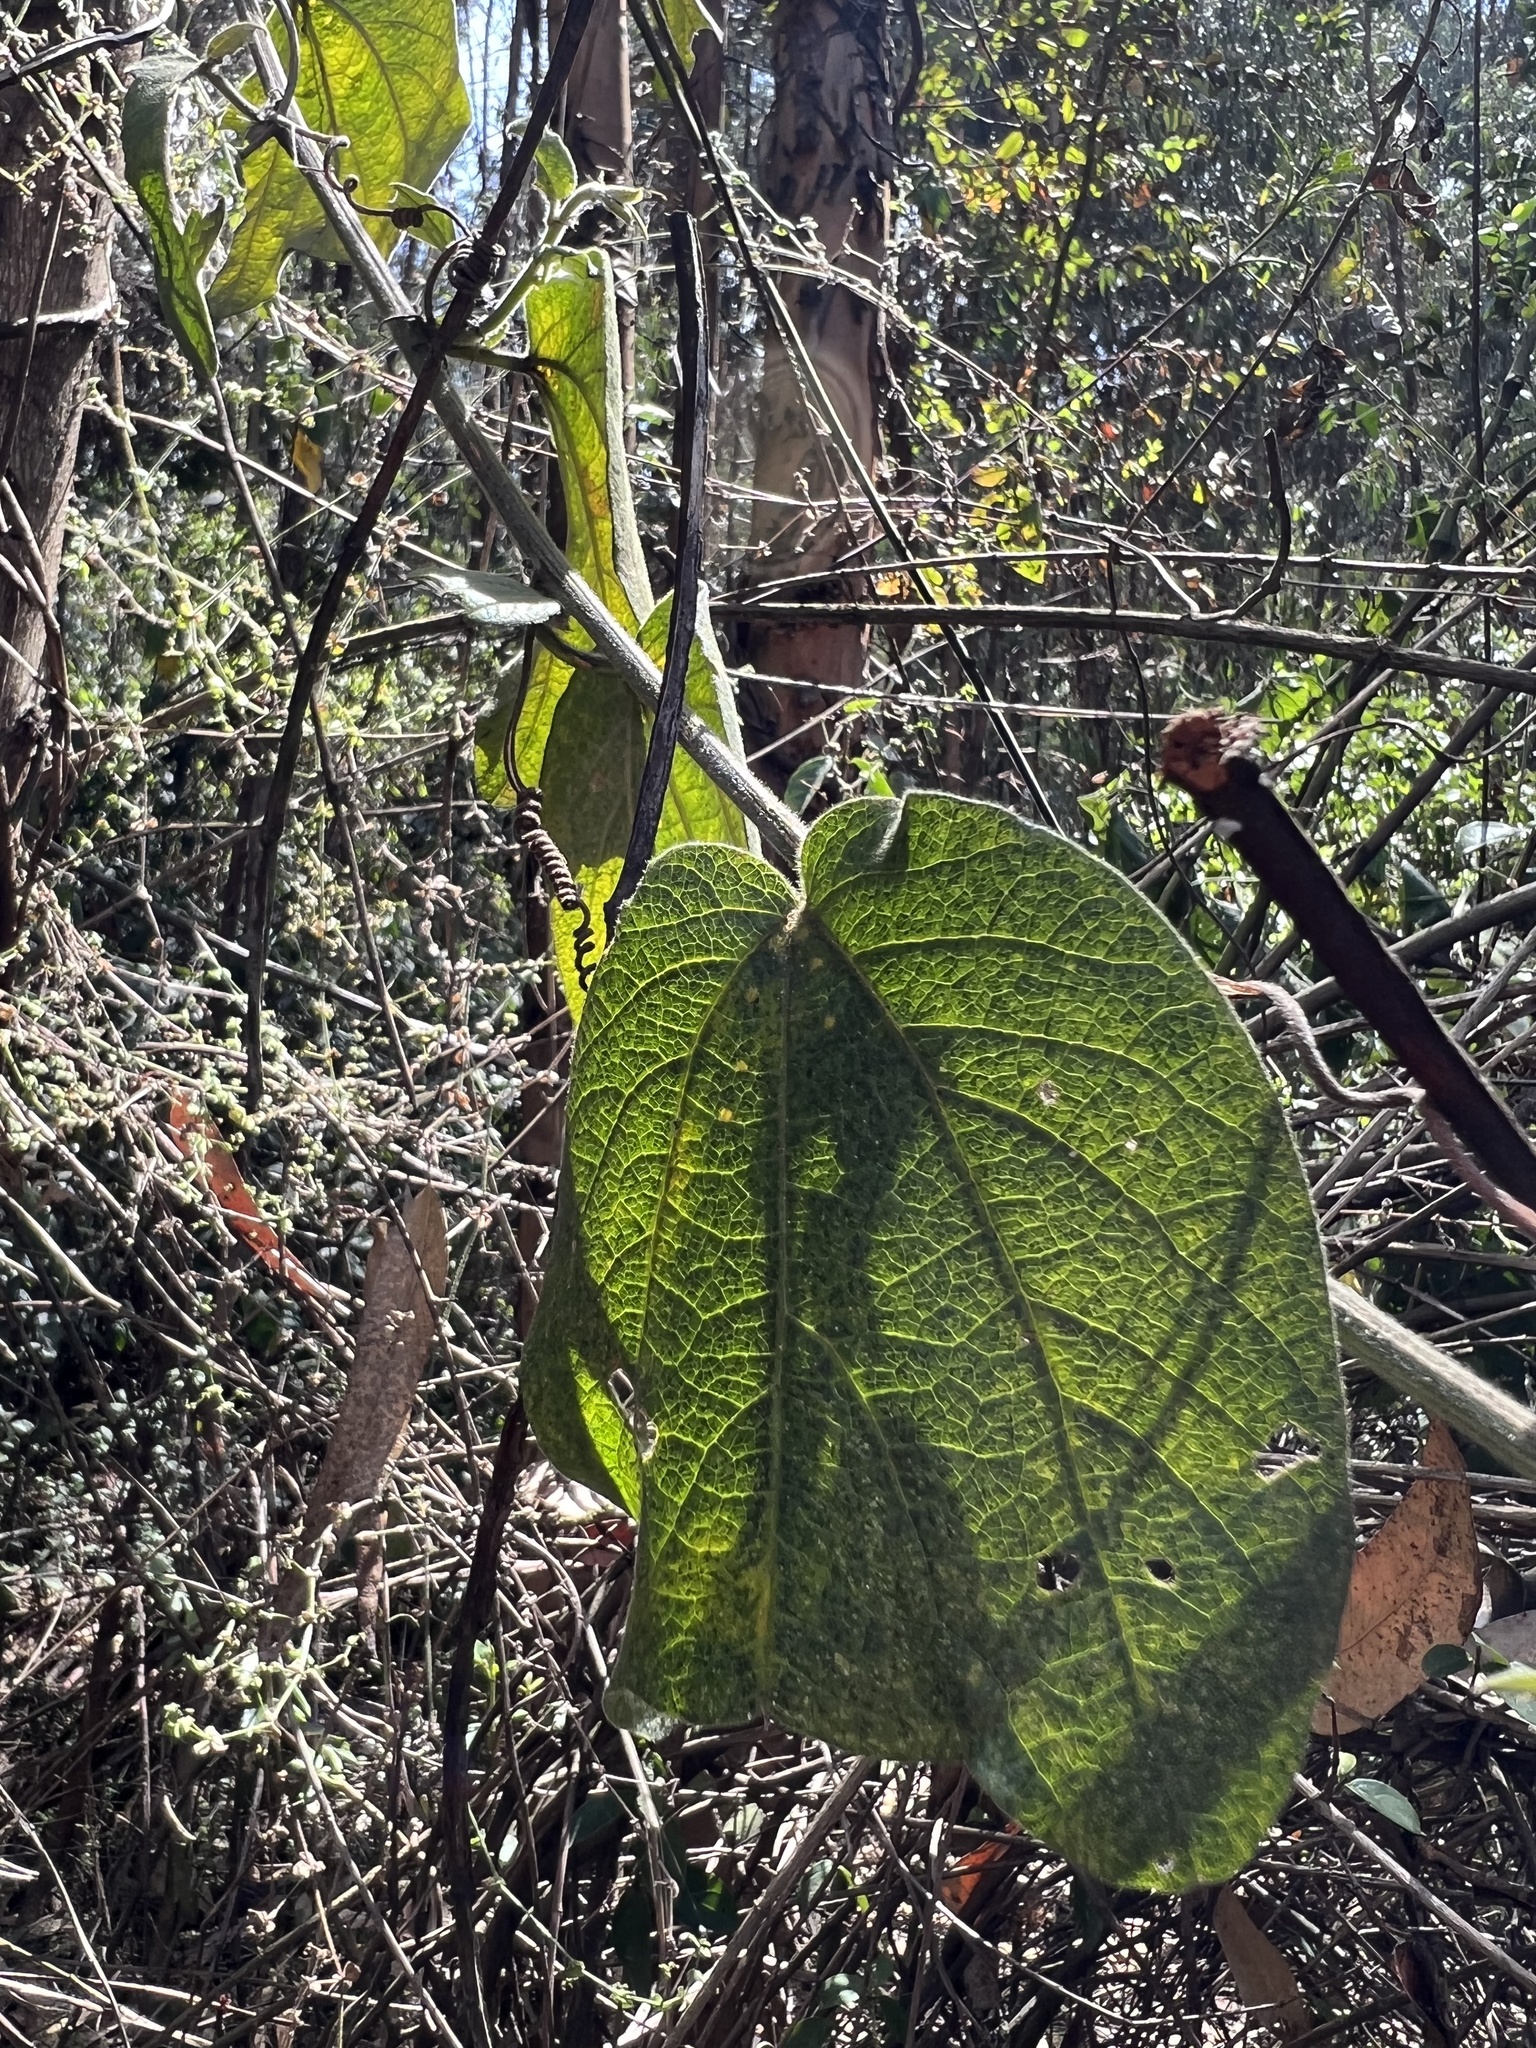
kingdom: Plantae
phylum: Tracheophyta
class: Magnoliopsida
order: Malpighiales
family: Passifloraceae
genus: Passiflora
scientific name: Passiflora bogotensis
